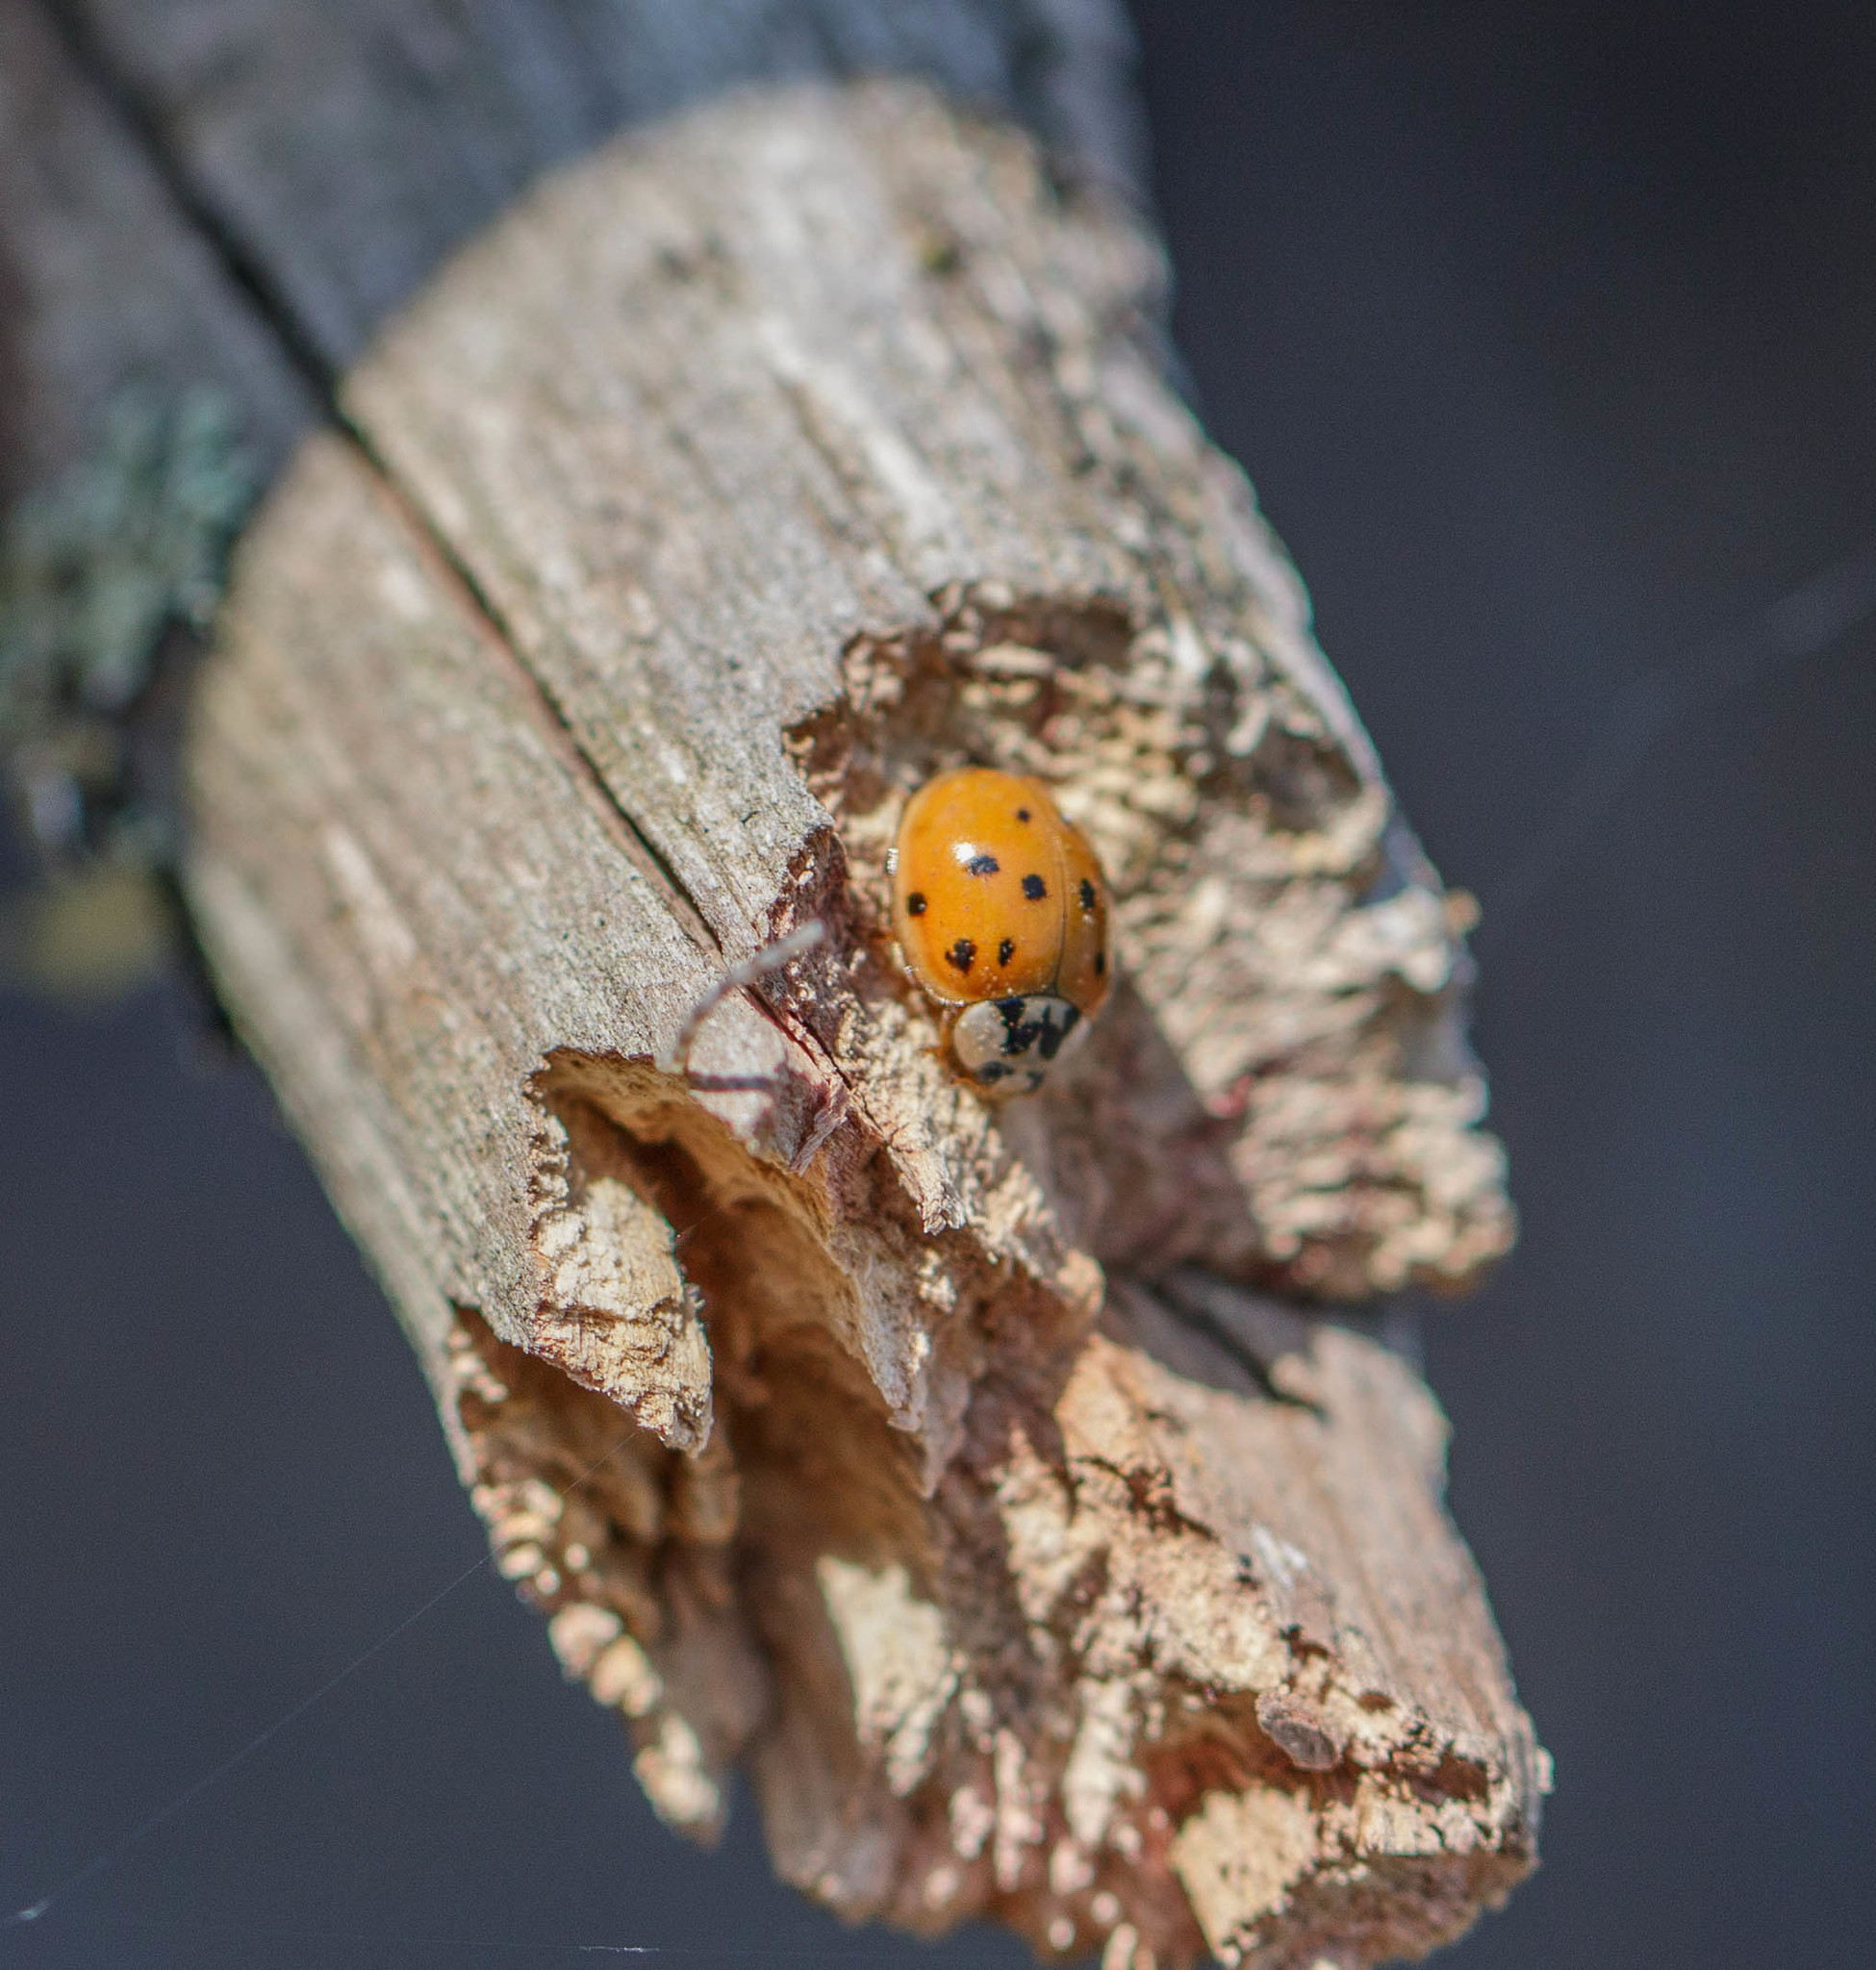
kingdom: Animalia
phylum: Arthropoda
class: Insecta
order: Coleoptera
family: Coccinellidae
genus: Harmonia
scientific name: Harmonia axyridis
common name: Harlequin ladybird
